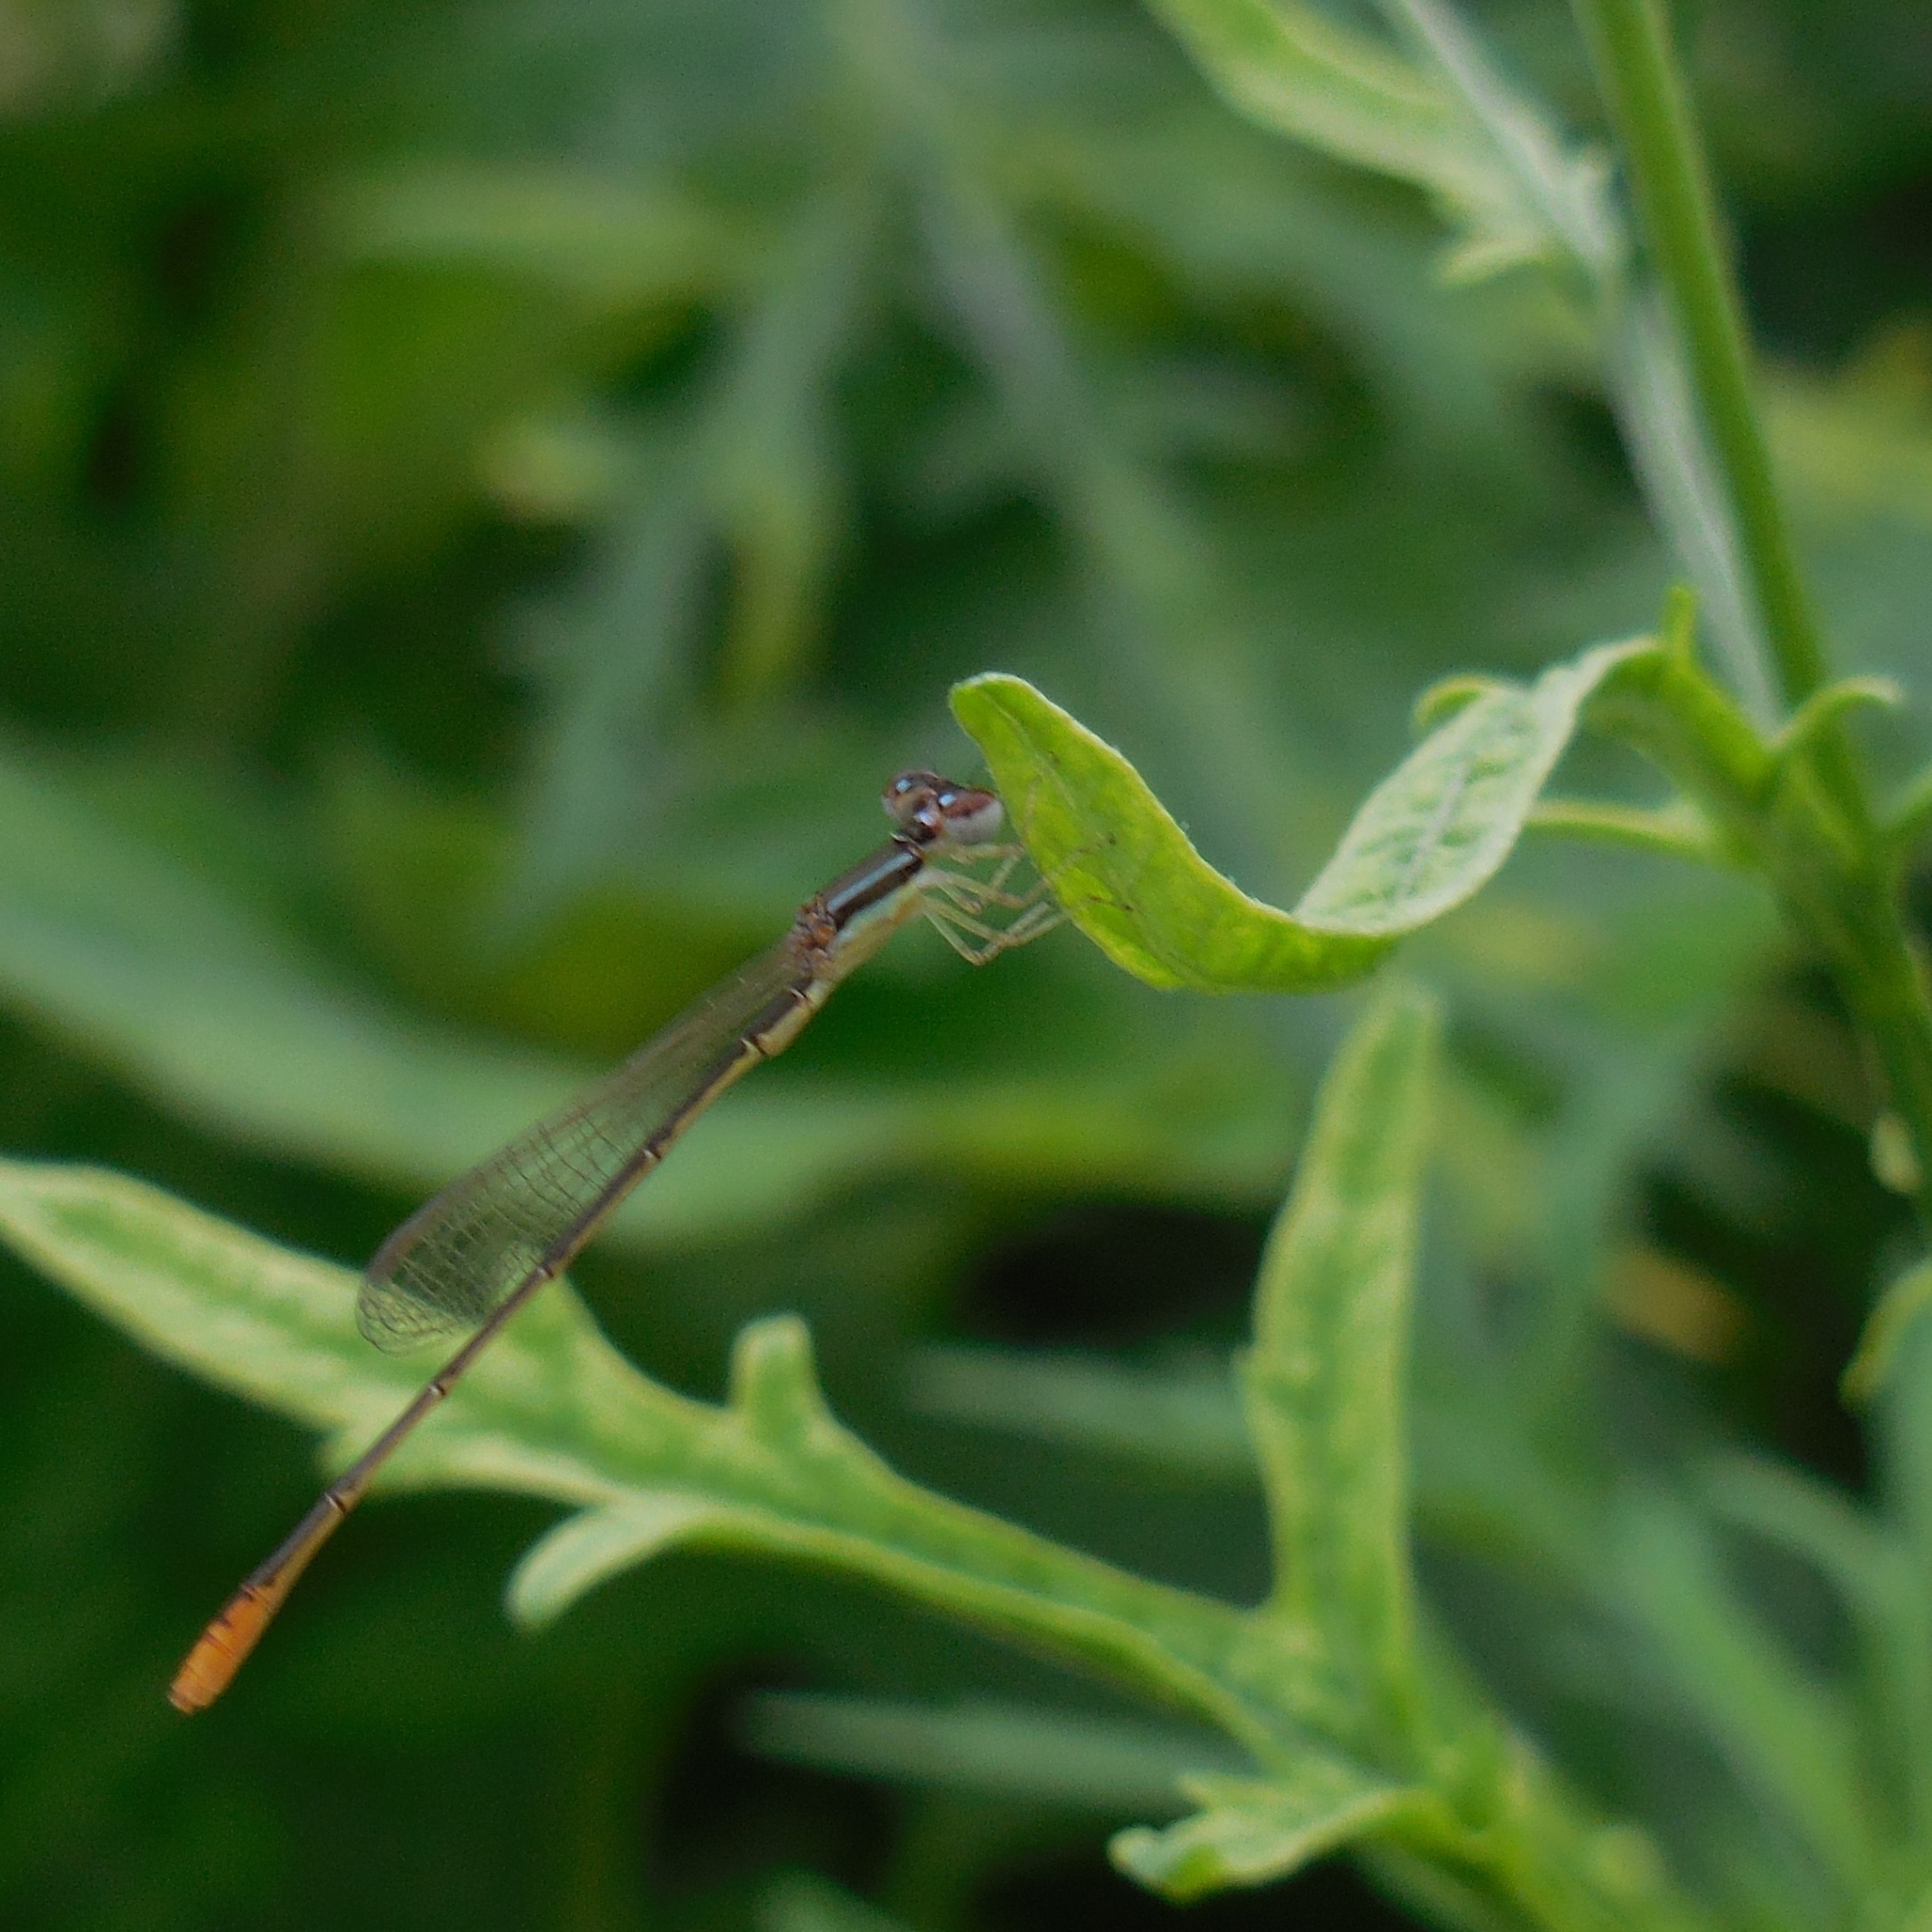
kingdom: Animalia
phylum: Arthropoda
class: Insecta
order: Odonata
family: Coenagrionidae
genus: Agriocnemis
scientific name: Agriocnemis pygmaea
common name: Pygmy wisp
